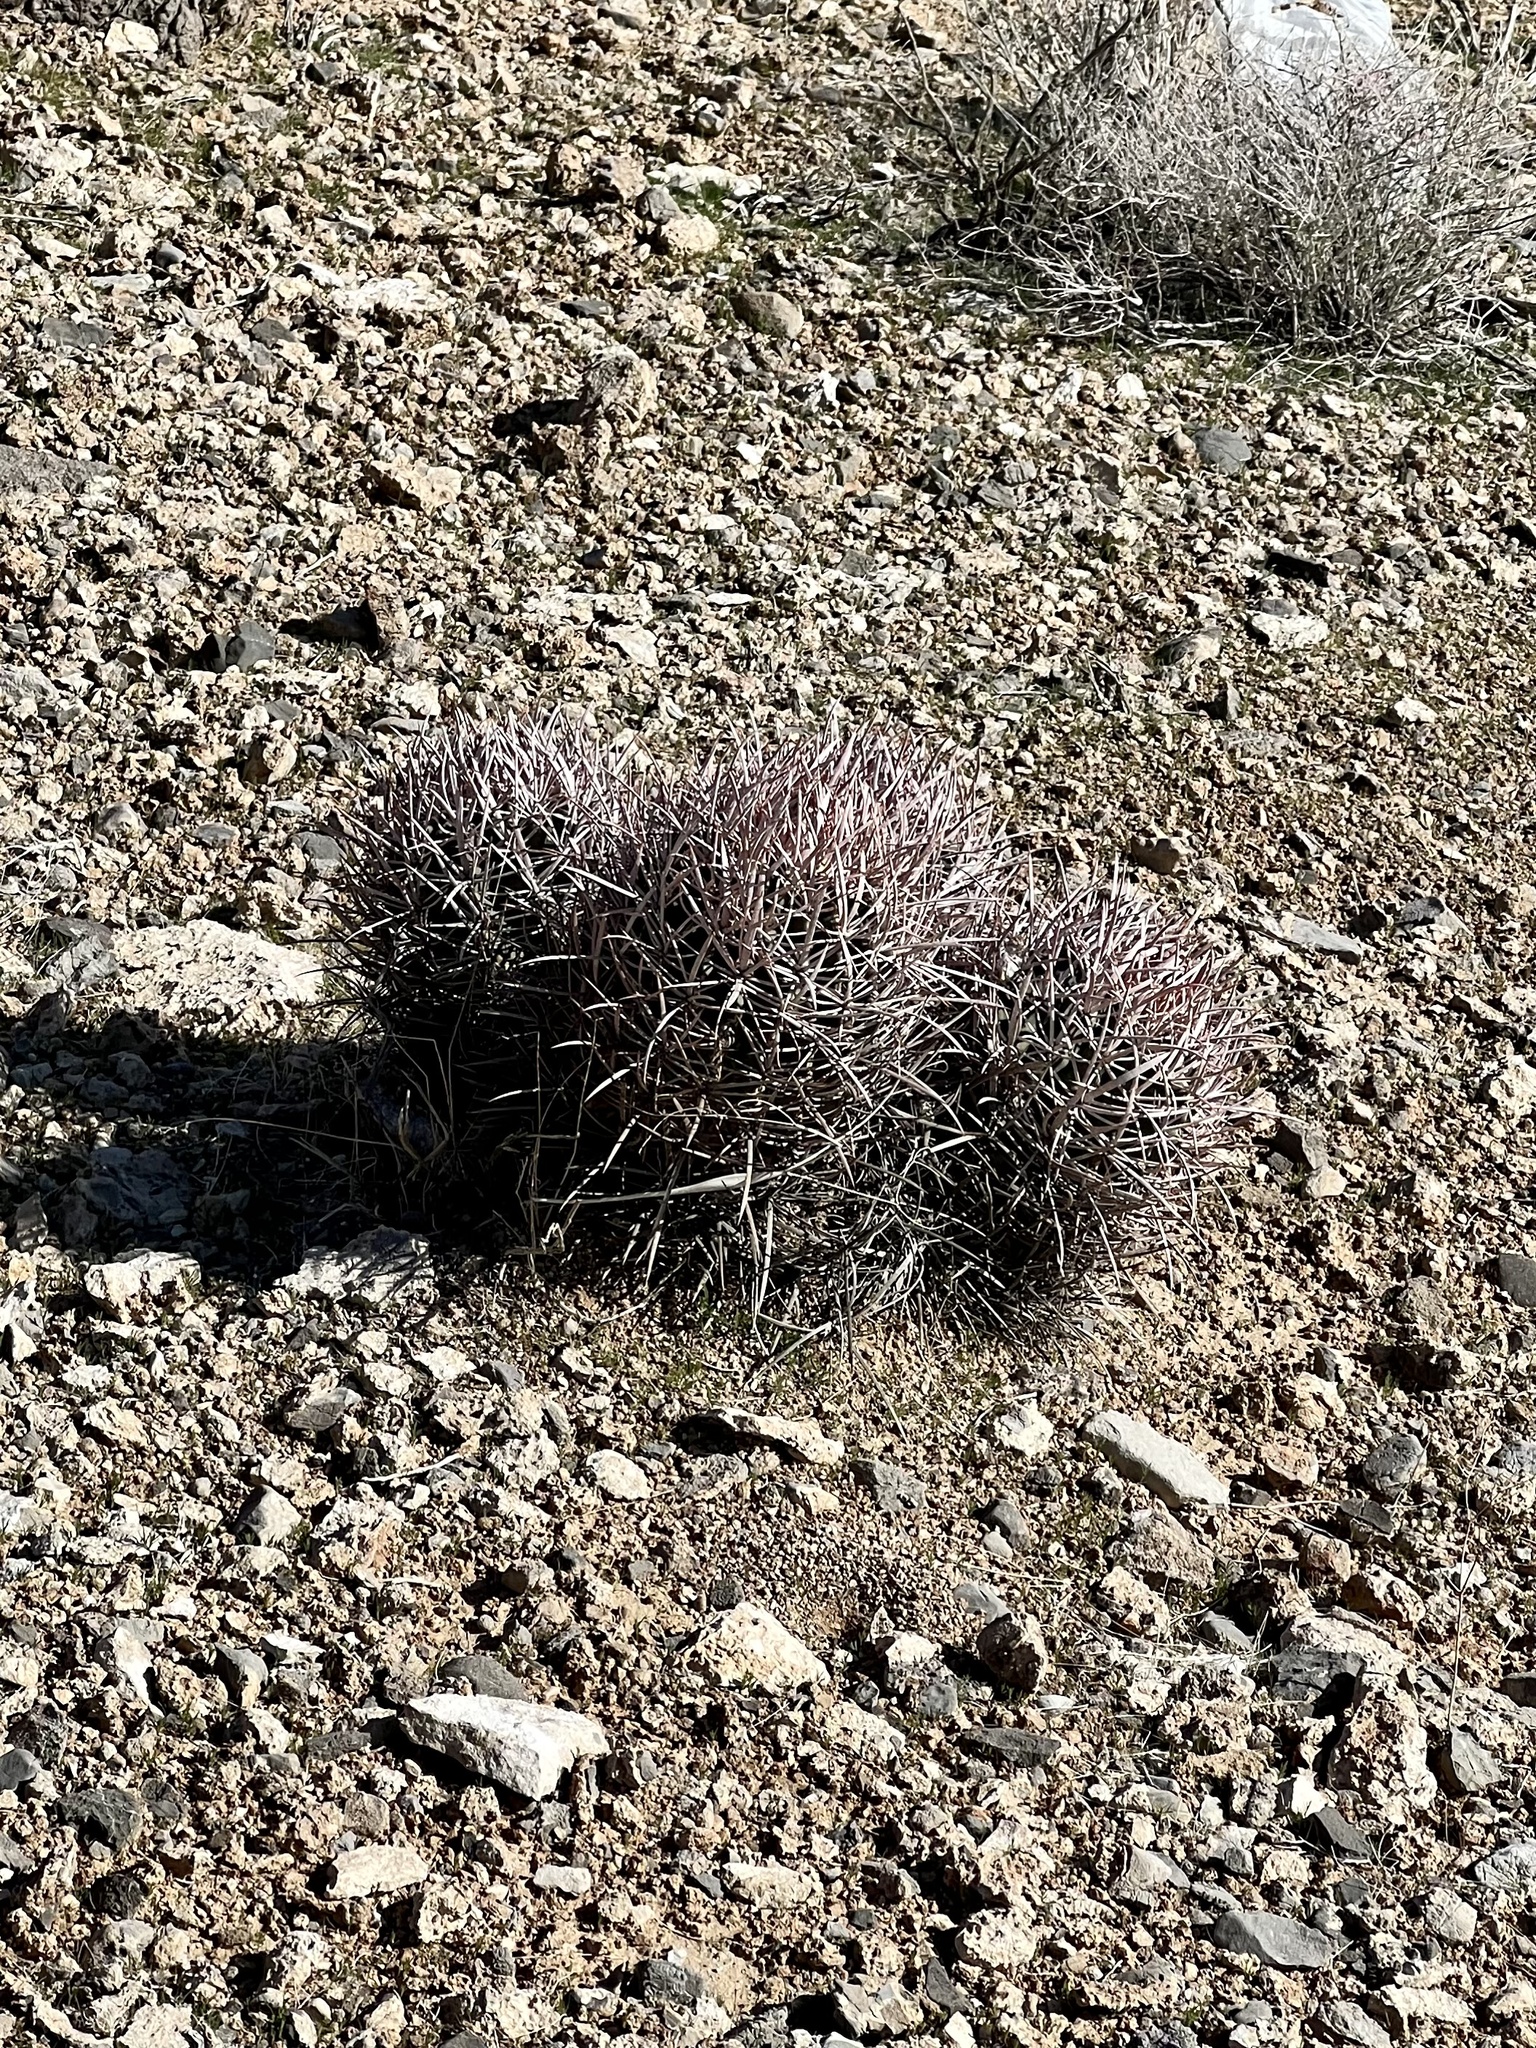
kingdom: Plantae
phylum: Tracheophyta
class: Magnoliopsida
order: Caryophyllales
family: Cactaceae
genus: Echinocactus
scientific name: Echinocactus polycephalus
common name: Cottontop cactus
